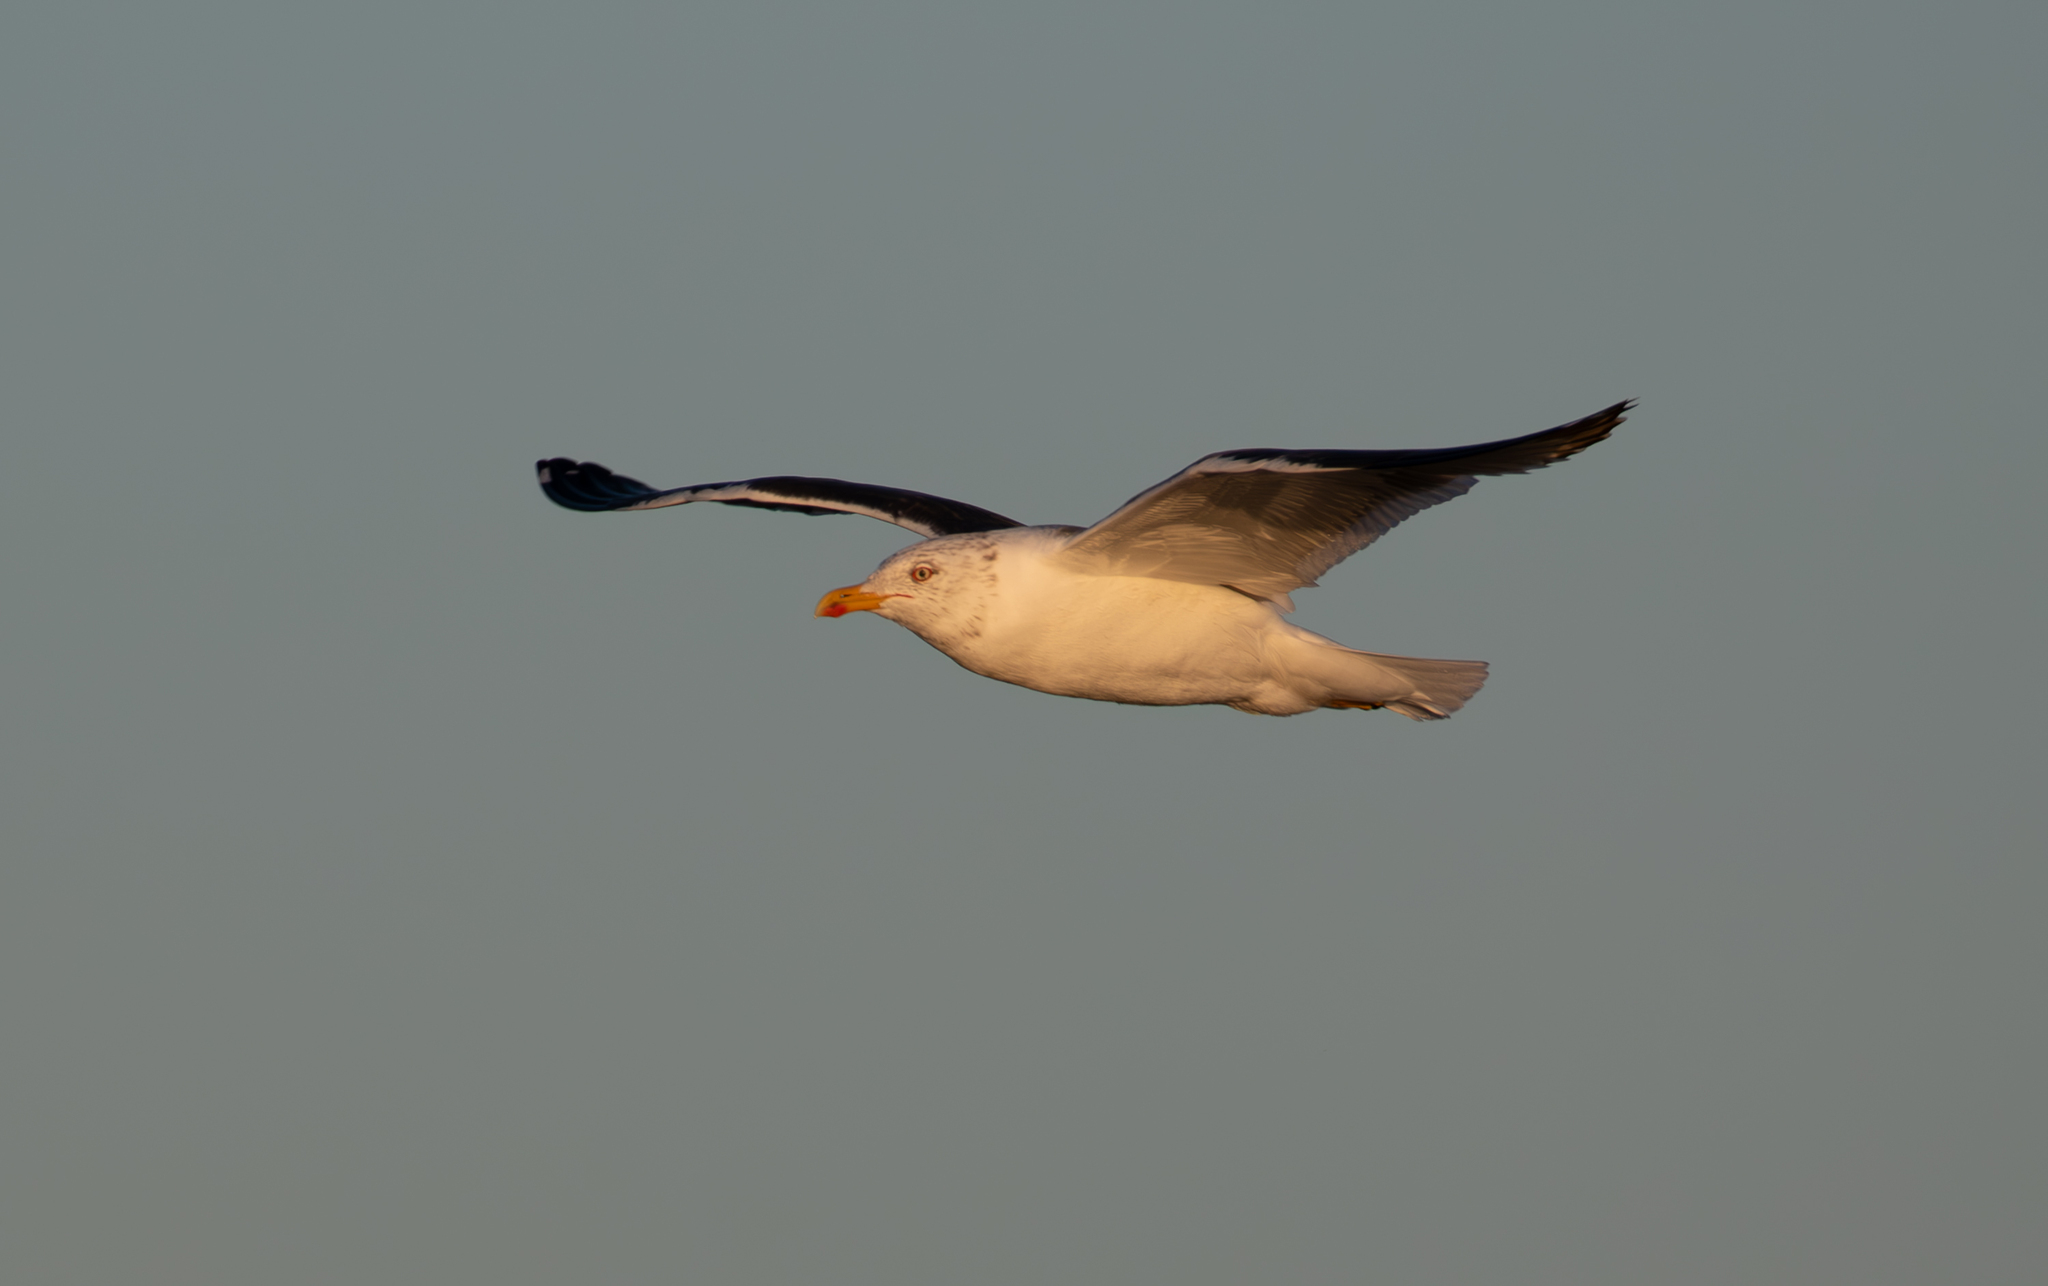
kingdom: Animalia
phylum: Chordata
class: Aves
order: Charadriiformes
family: Laridae
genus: Larus
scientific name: Larus fuscus
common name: Lesser black-backed gull
